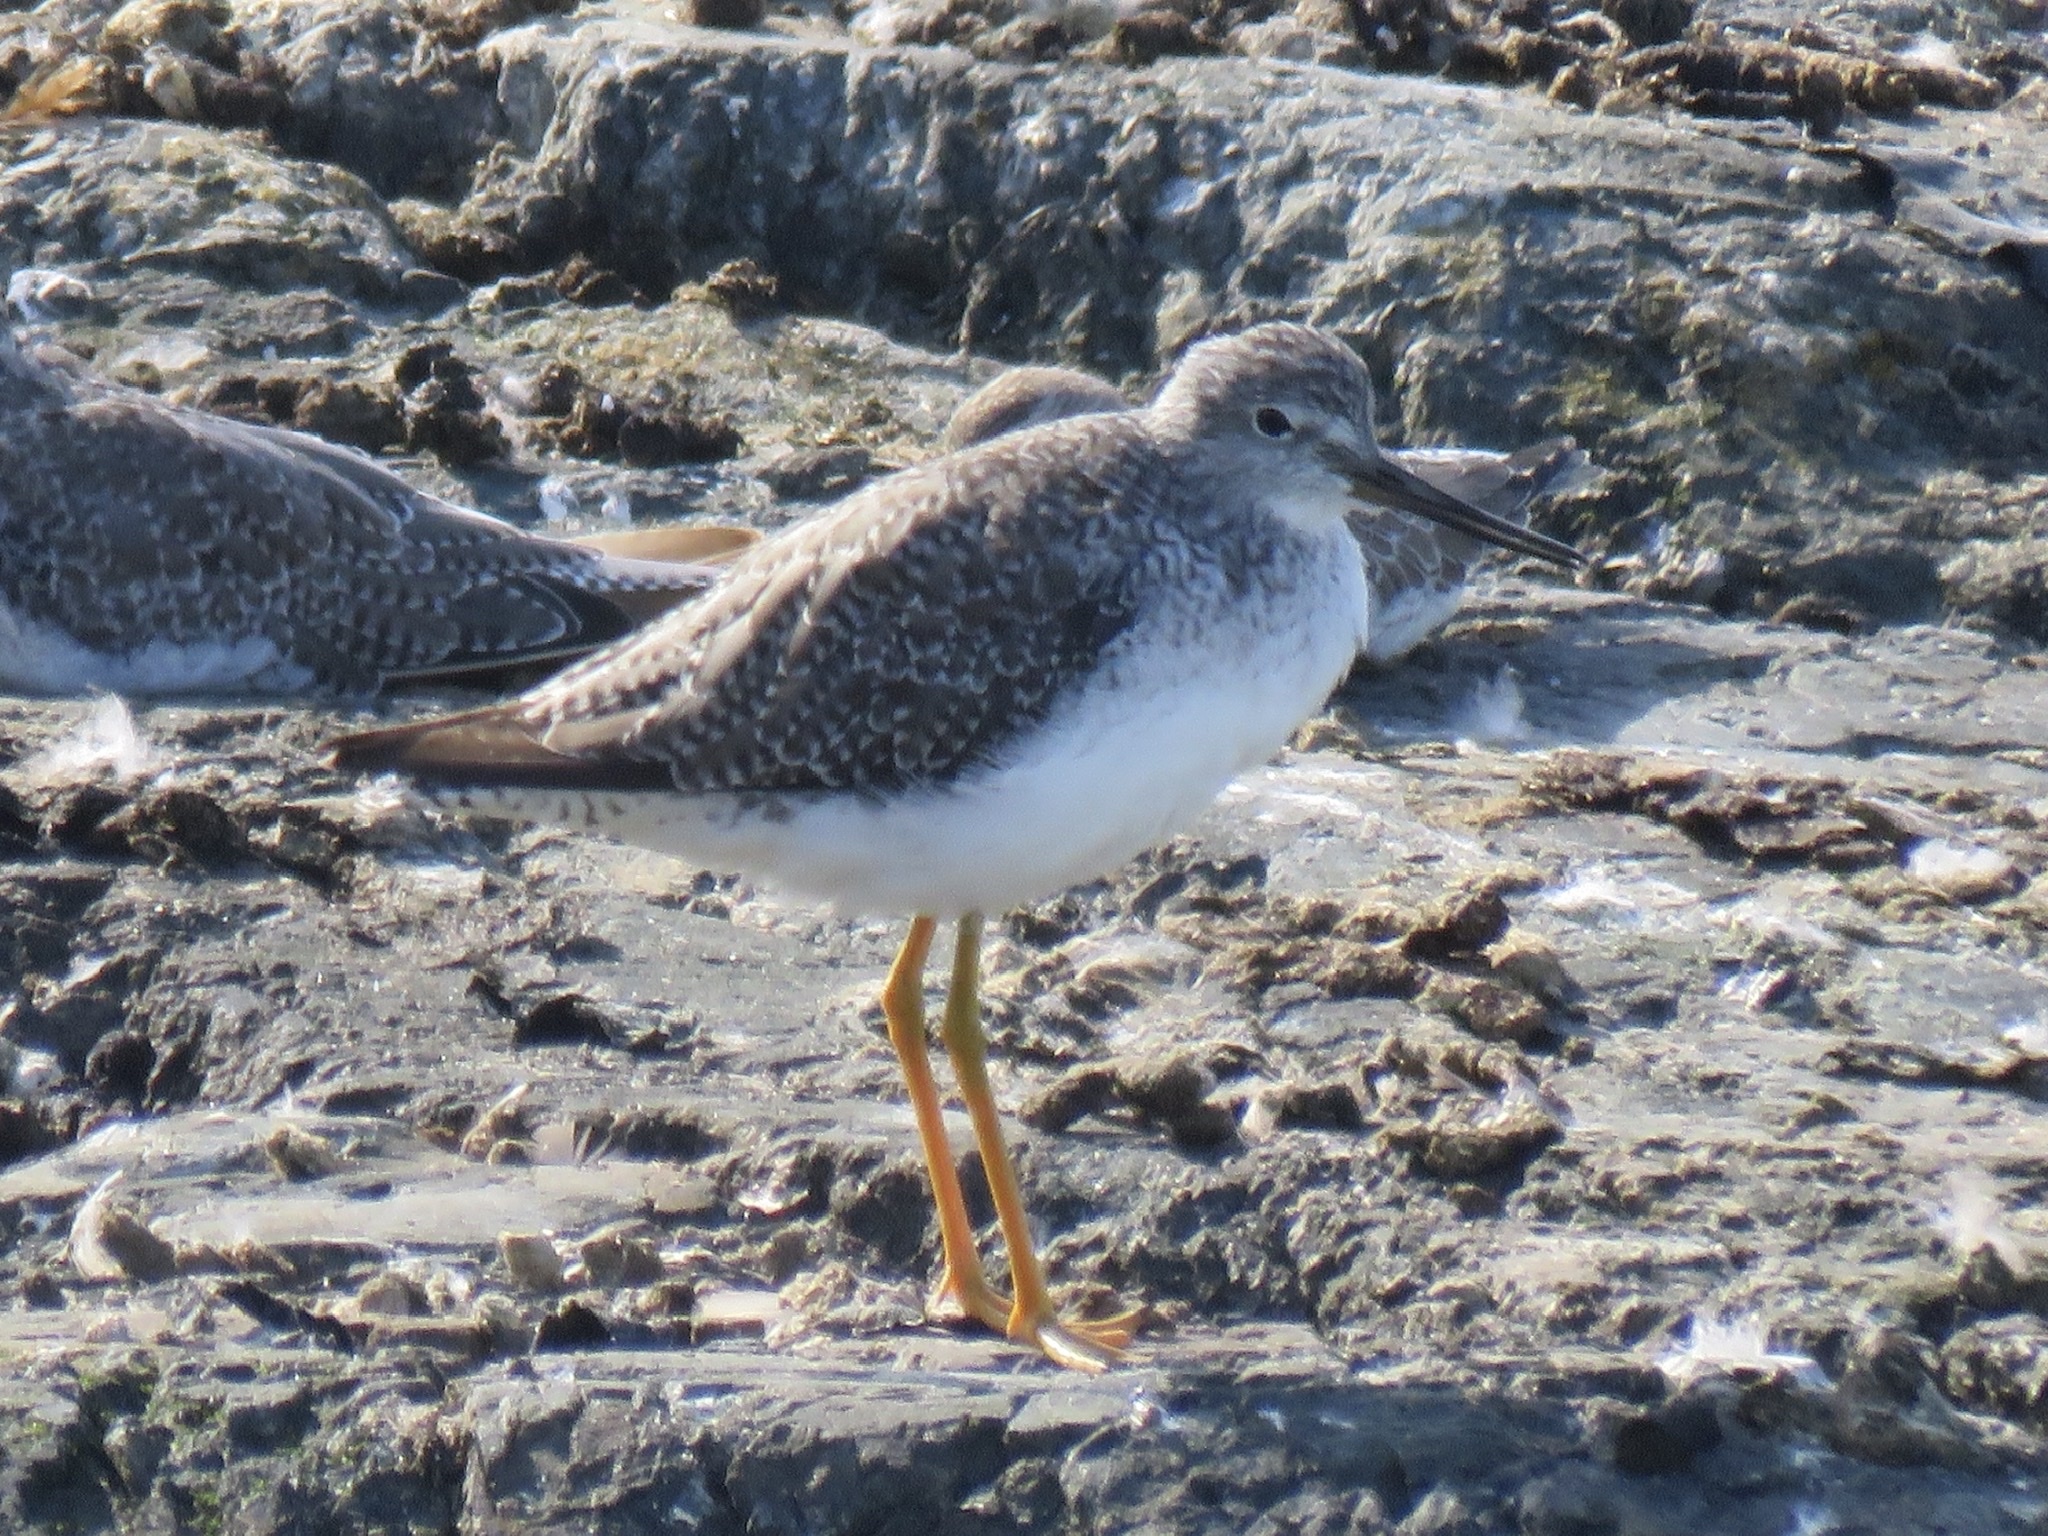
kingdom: Animalia
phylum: Chordata
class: Aves
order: Charadriiformes
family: Scolopacidae
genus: Tringa
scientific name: Tringa melanoleuca
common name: Greater yellowlegs
